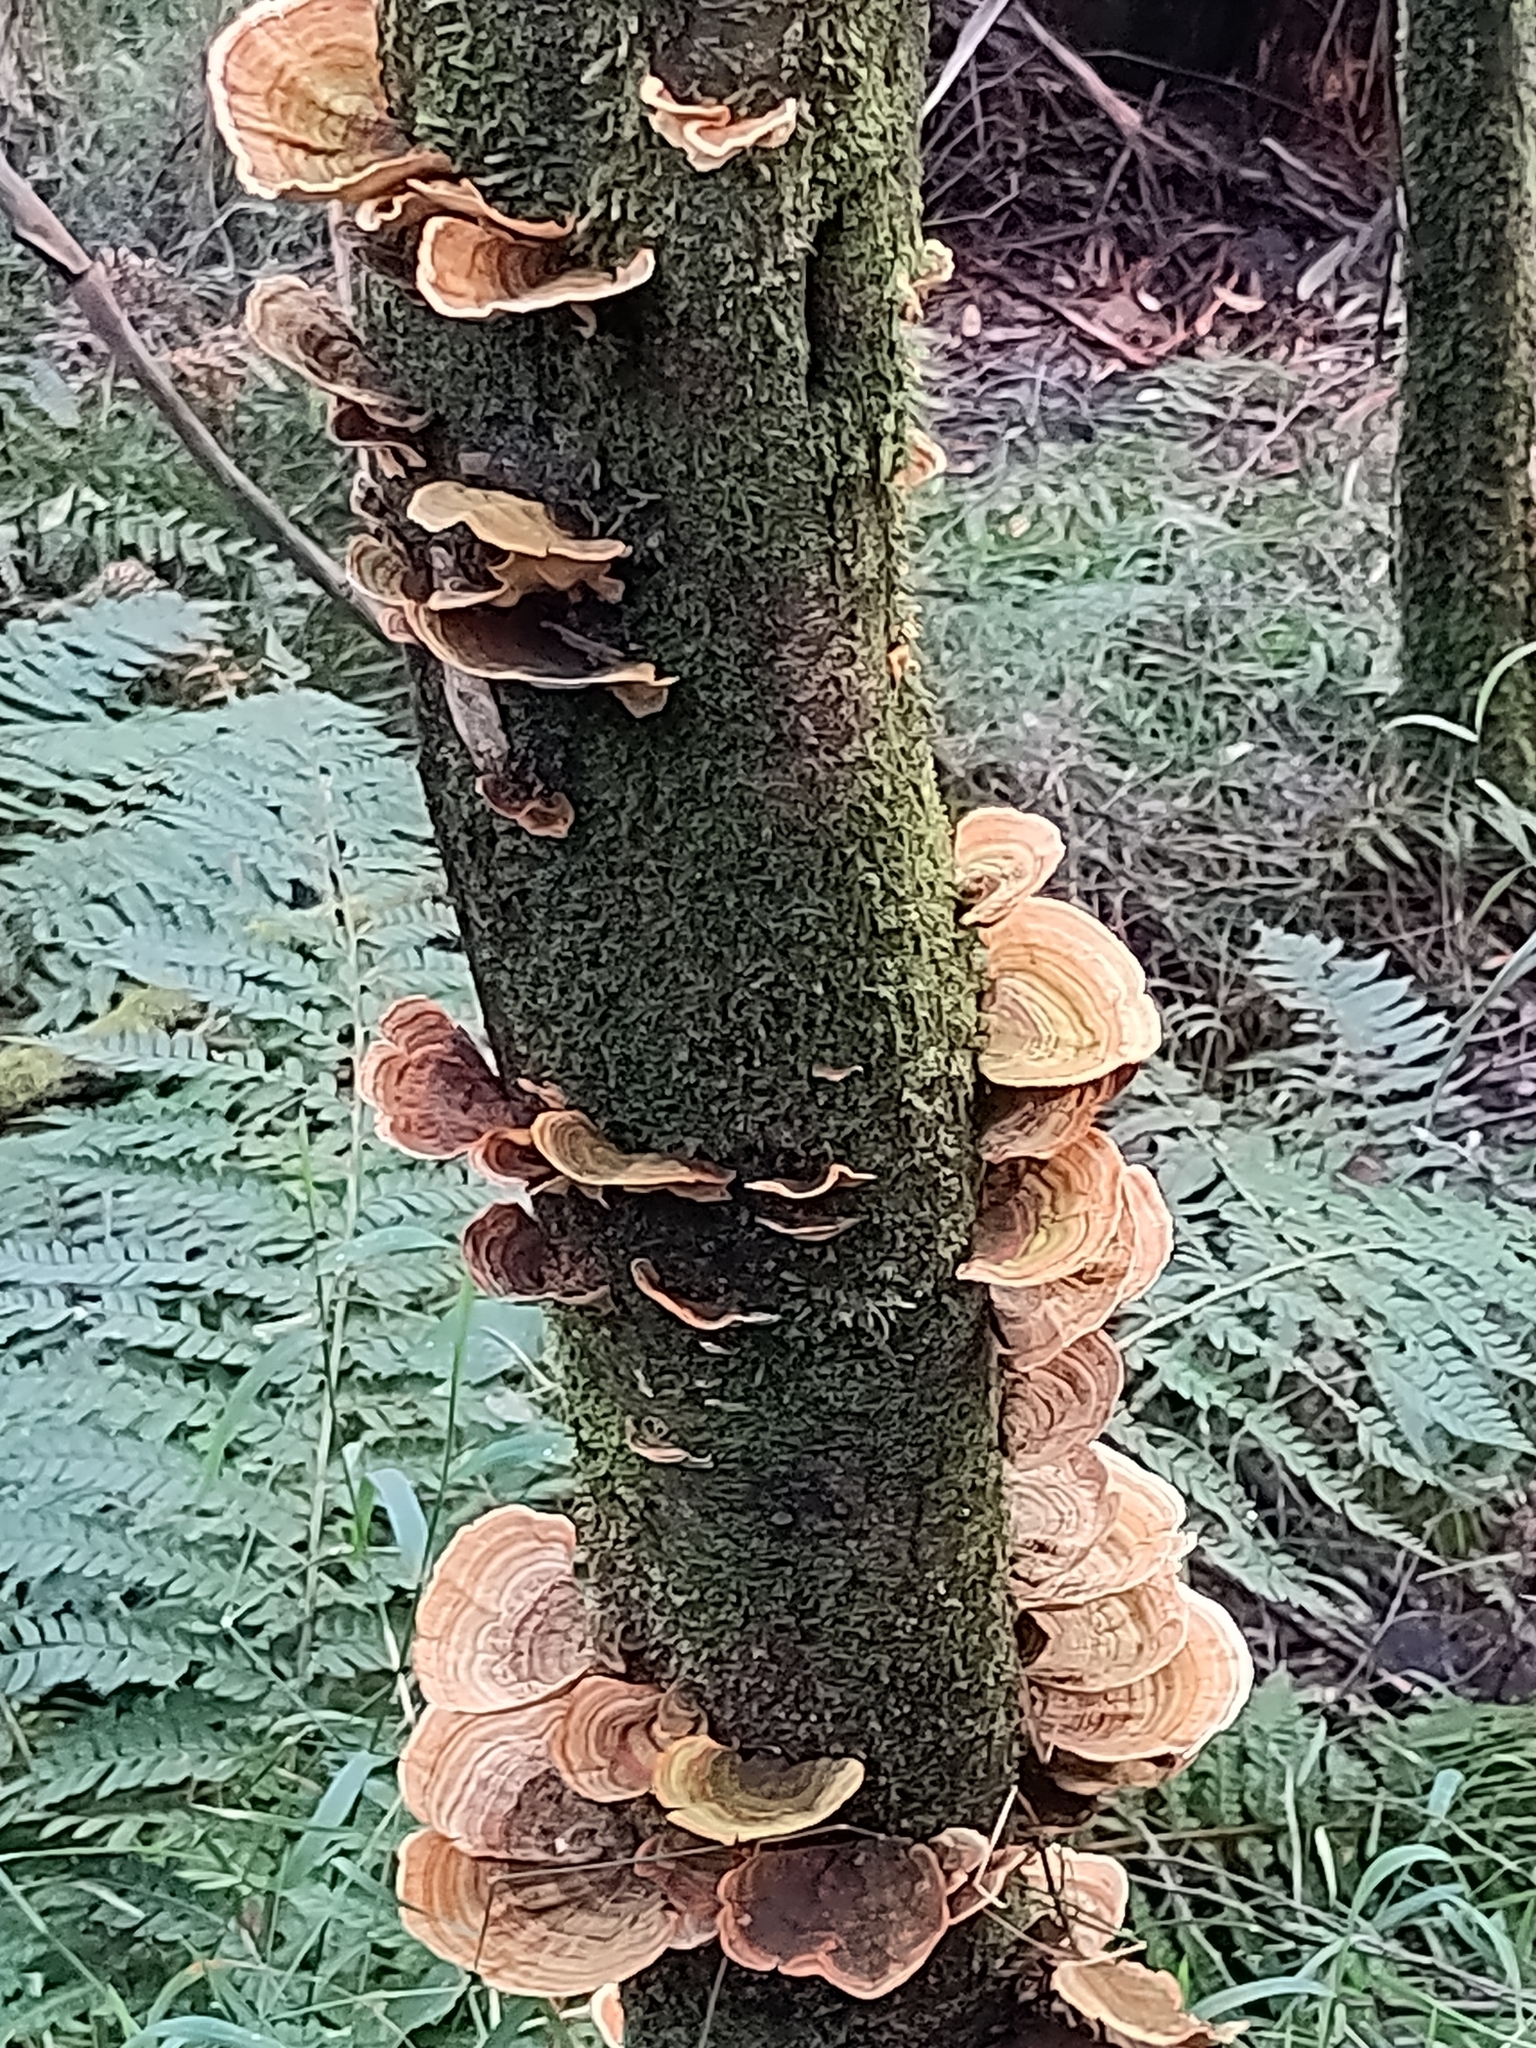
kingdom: Fungi
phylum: Basidiomycota
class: Agaricomycetes
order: Russulales
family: Stereaceae
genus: Stereum
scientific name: Stereum versicolor
